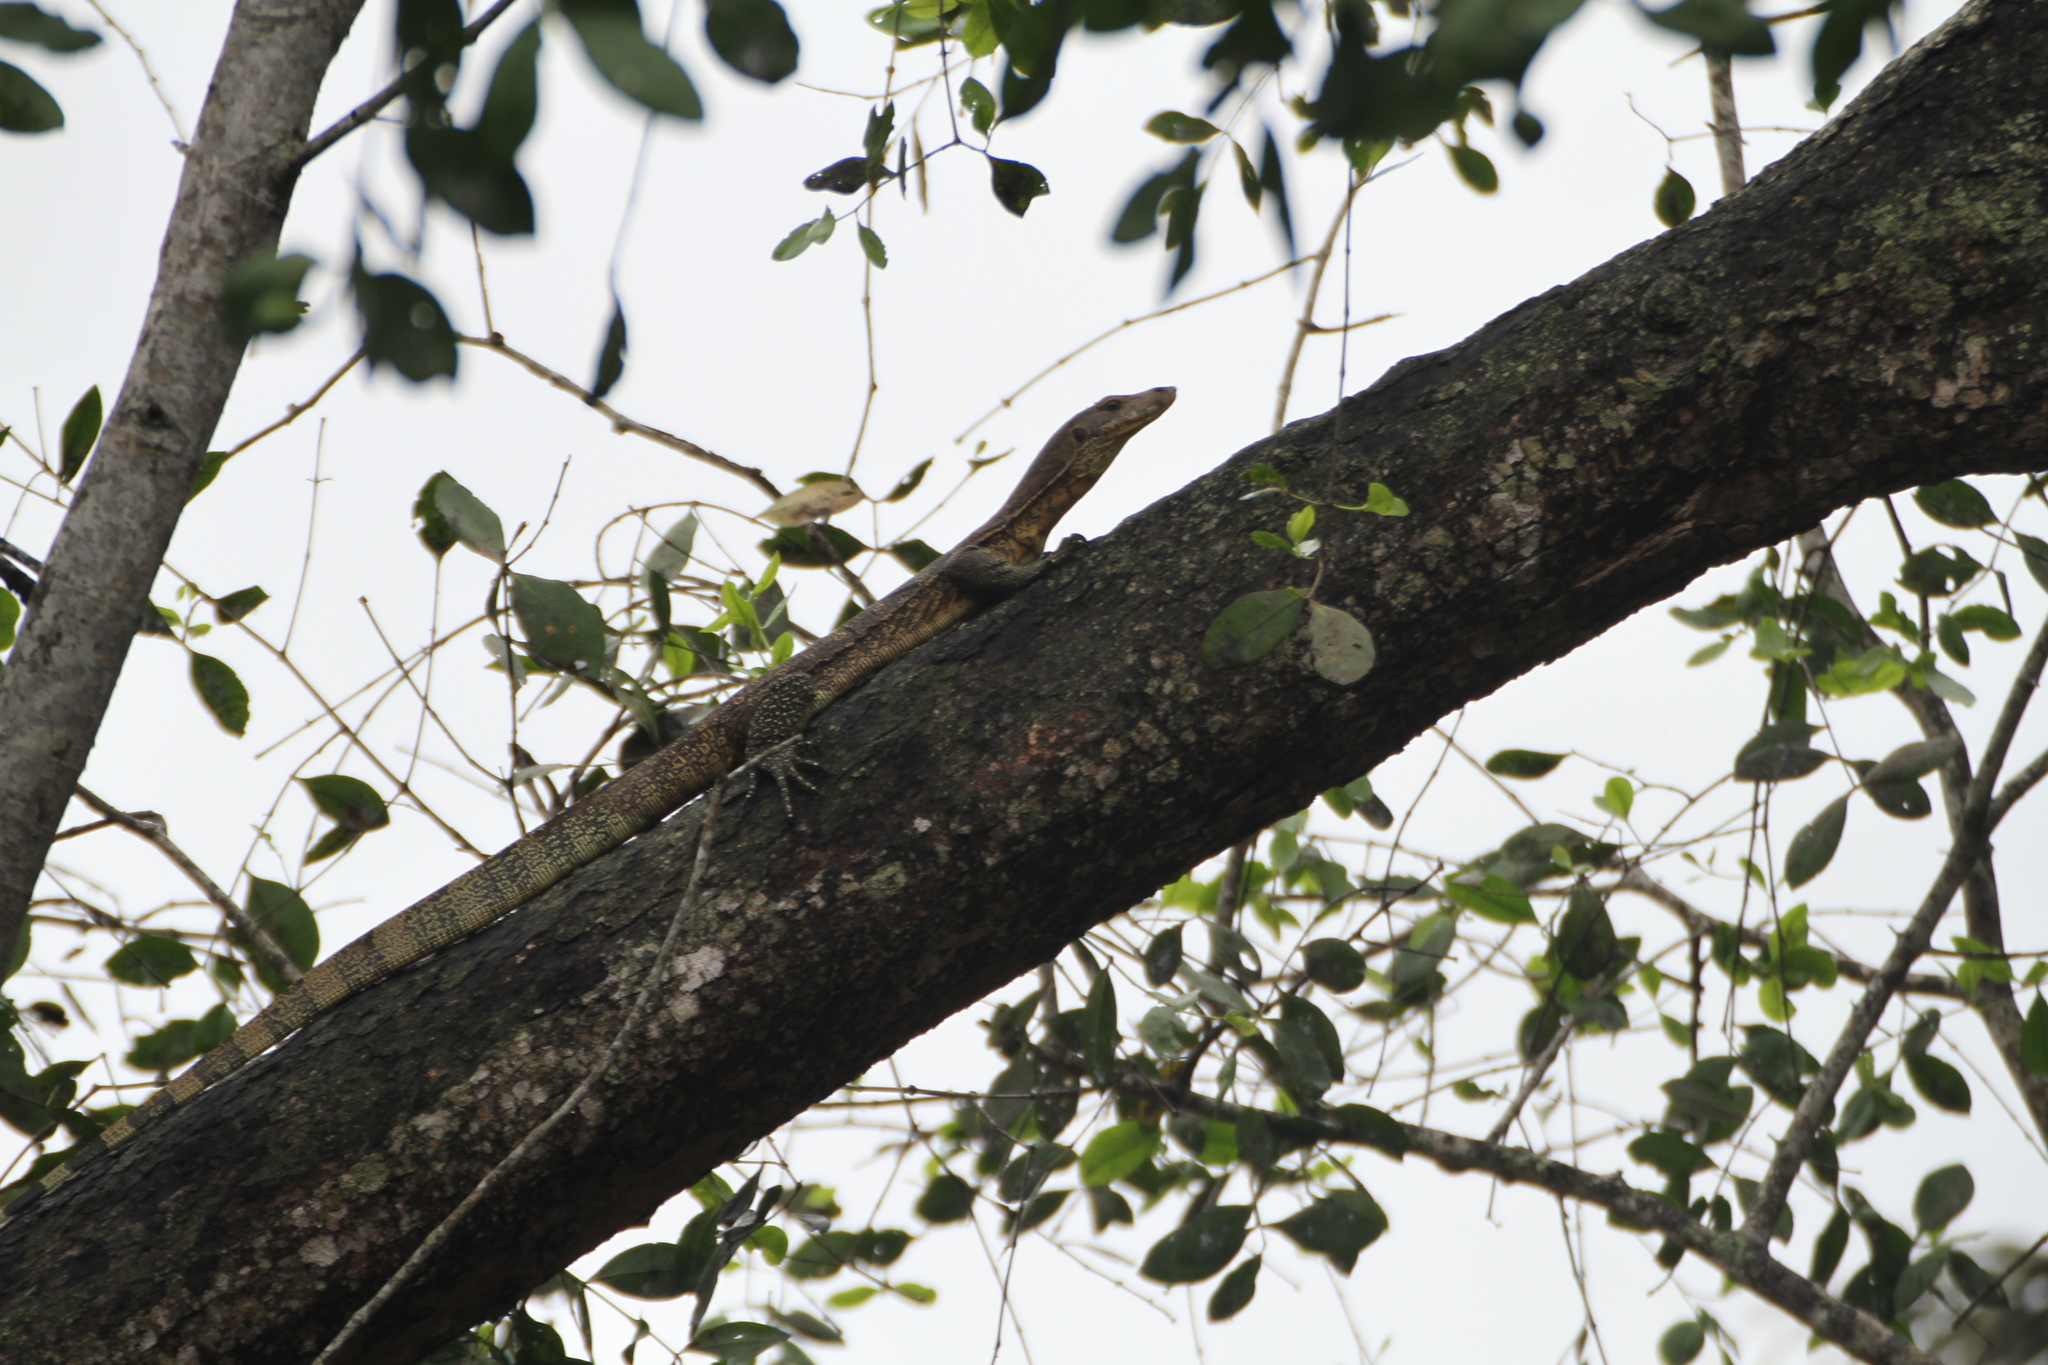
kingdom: Animalia
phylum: Chordata
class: Squamata
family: Varanidae
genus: Varanus
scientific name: Varanus salvator
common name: Common water monitor
